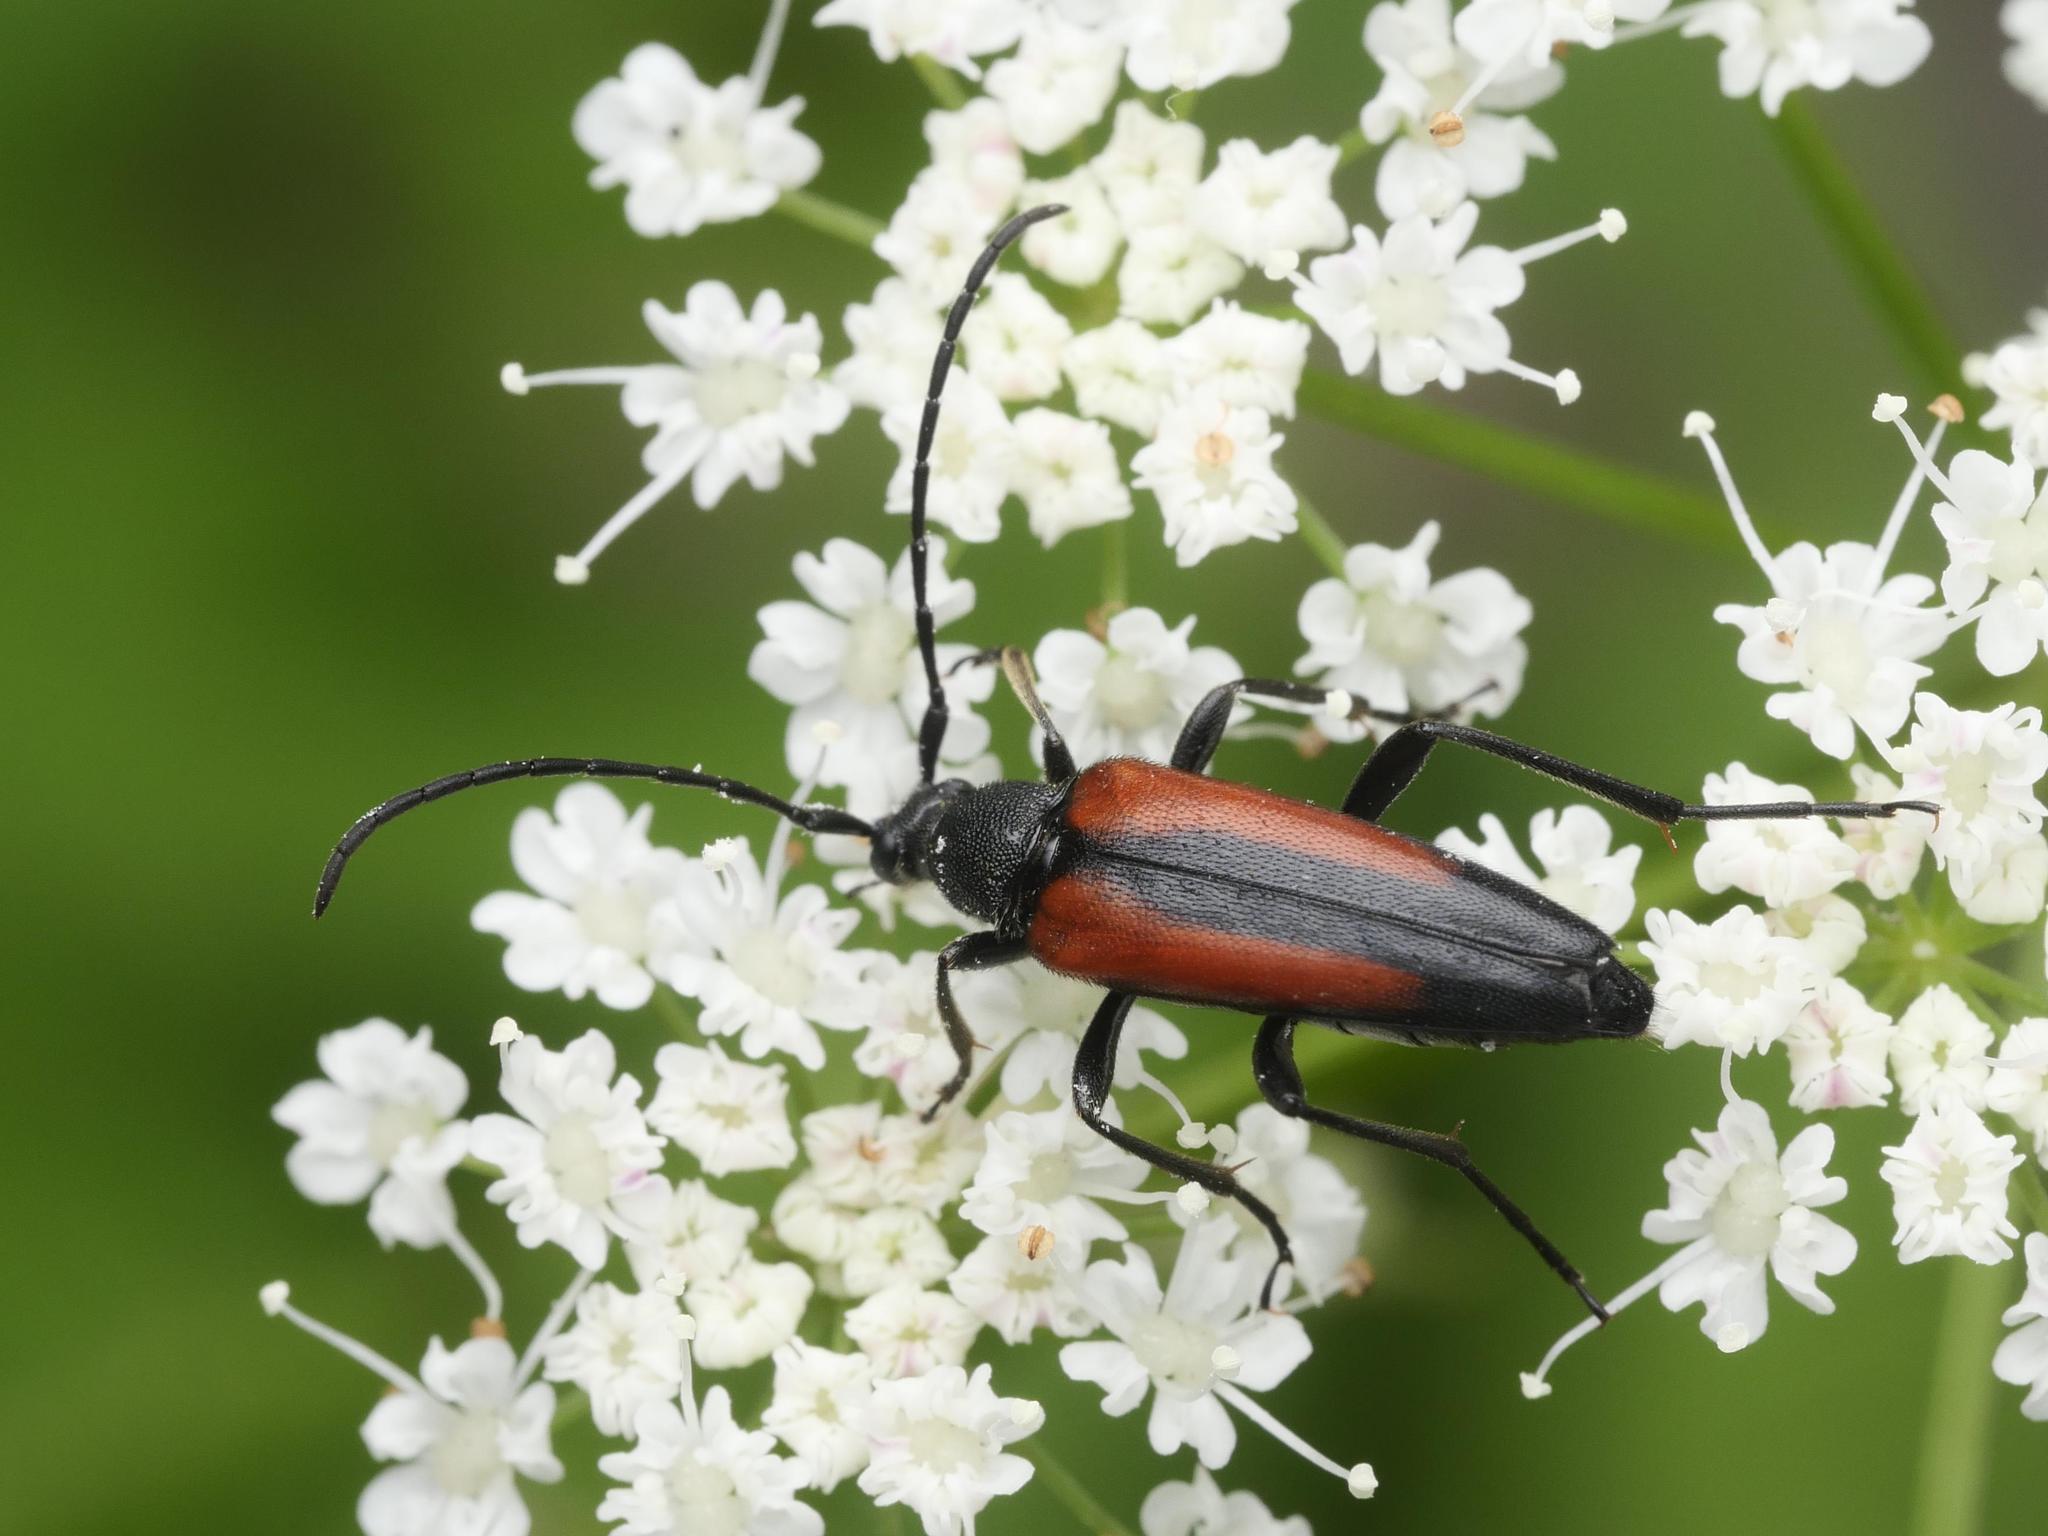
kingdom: Animalia
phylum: Arthropoda
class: Insecta
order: Coleoptera
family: Cerambycidae
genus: Stenurella
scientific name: Stenurella melanura
